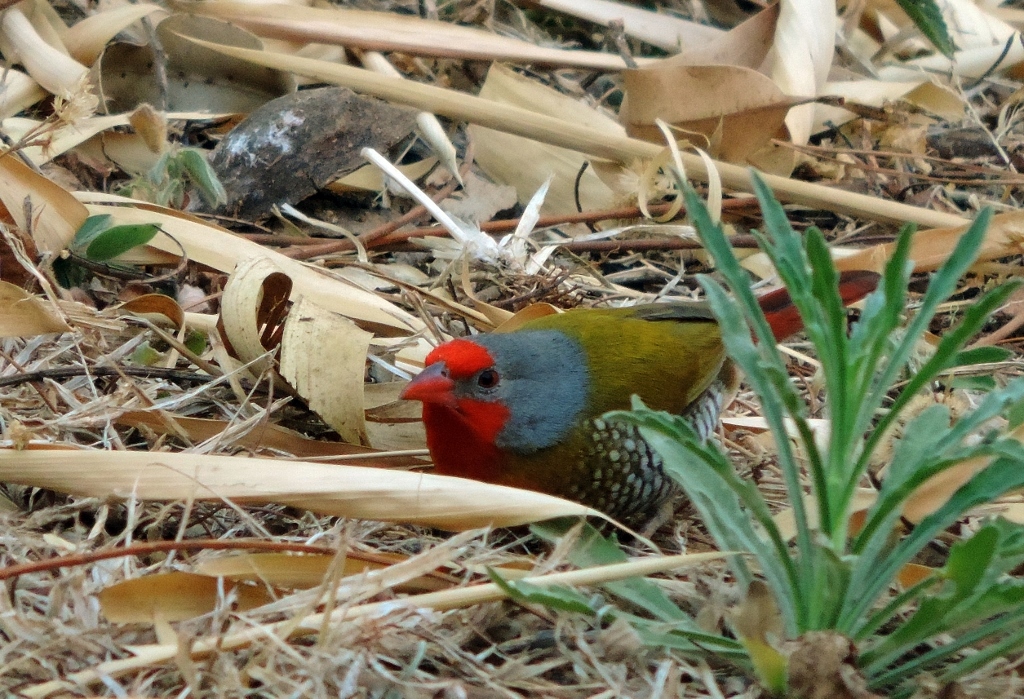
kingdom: Animalia
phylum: Chordata
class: Aves
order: Passeriformes
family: Estrildidae
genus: Pytilia
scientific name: Pytilia melba
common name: Green-winged pytilia
